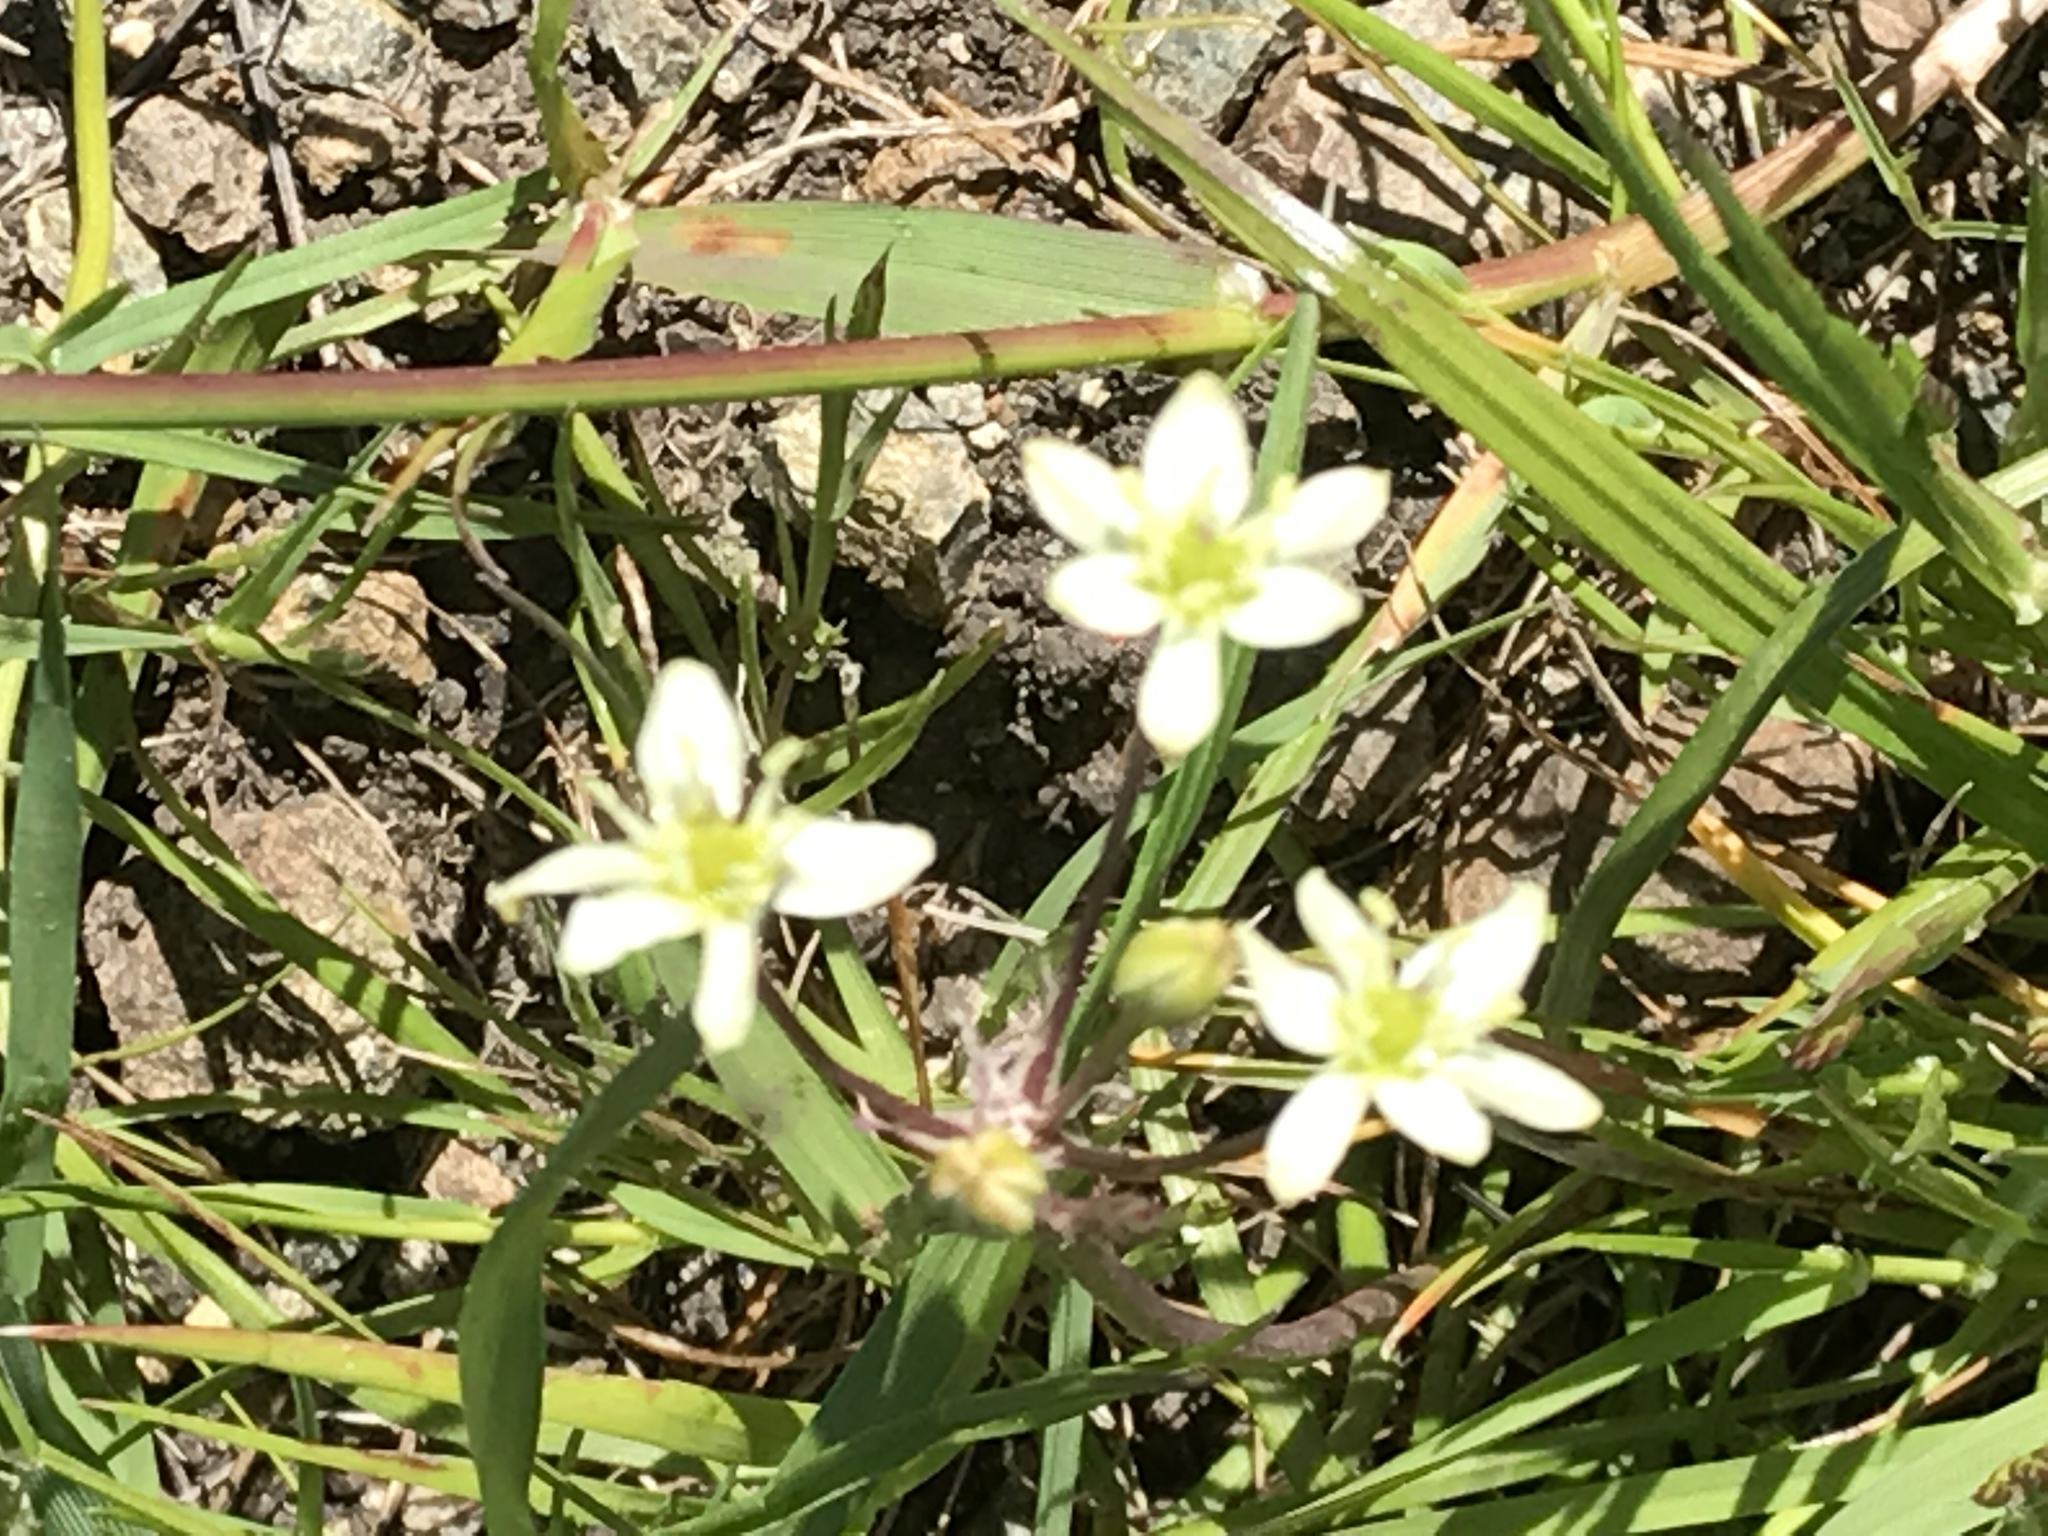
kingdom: Plantae
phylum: Tracheophyta
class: Liliopsida
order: Asparagales
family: Asparagaceae
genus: Muilla
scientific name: Muilla maritima
